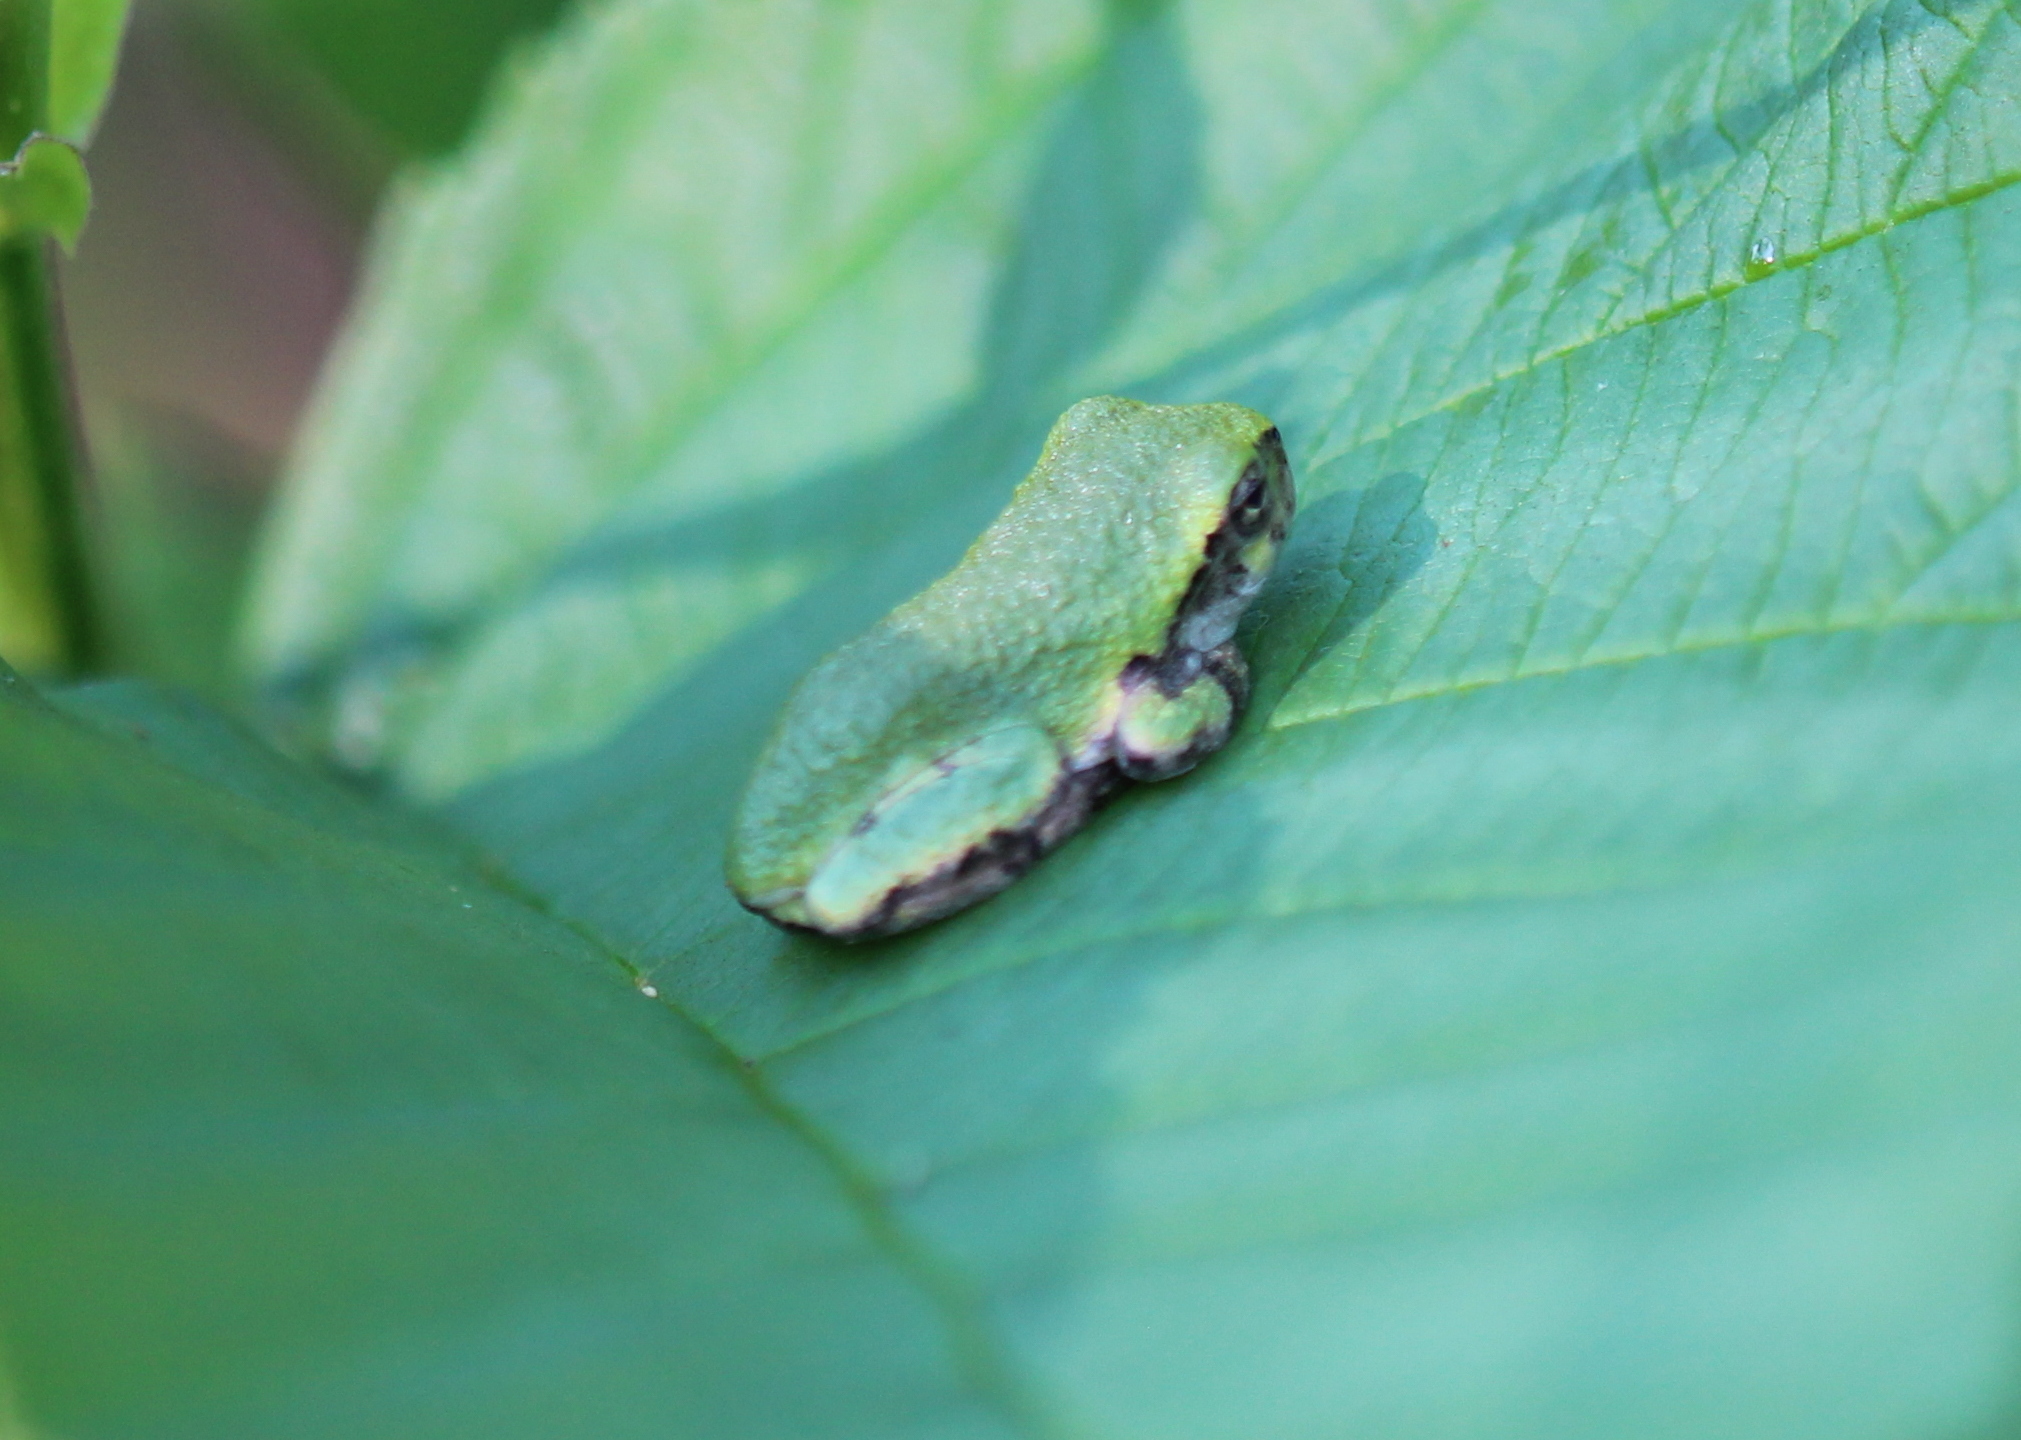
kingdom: Animalia
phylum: Chordata
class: Amphibia
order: Anura
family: Hylidae
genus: Dryophytes
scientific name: Dryophytes versicolor
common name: Gray treefrog
